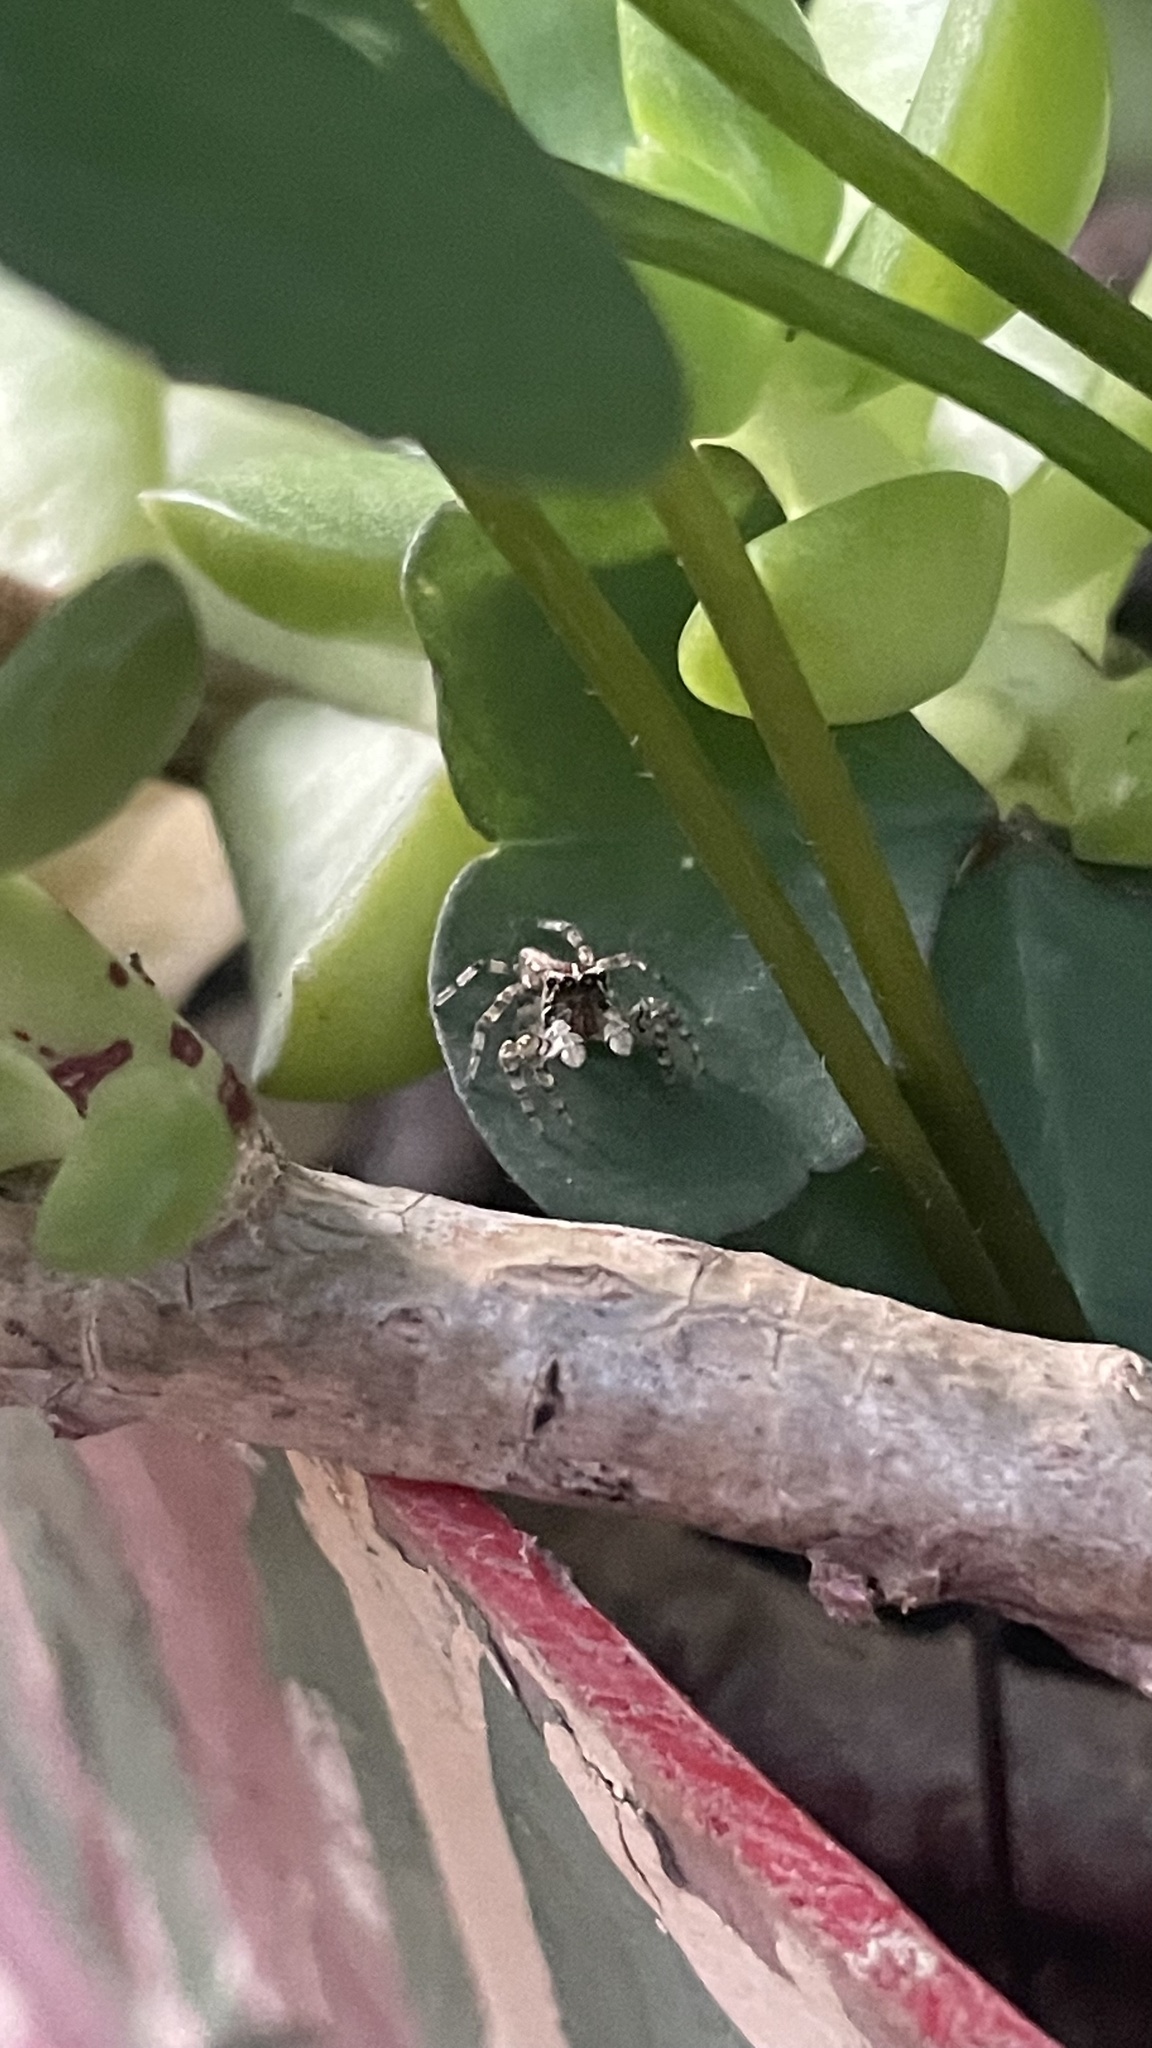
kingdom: Animalia
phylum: Arthropoda
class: Arachnida
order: Araneae
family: Salticidae
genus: Sumampattus
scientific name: Sumampattus quinqueradiatus
